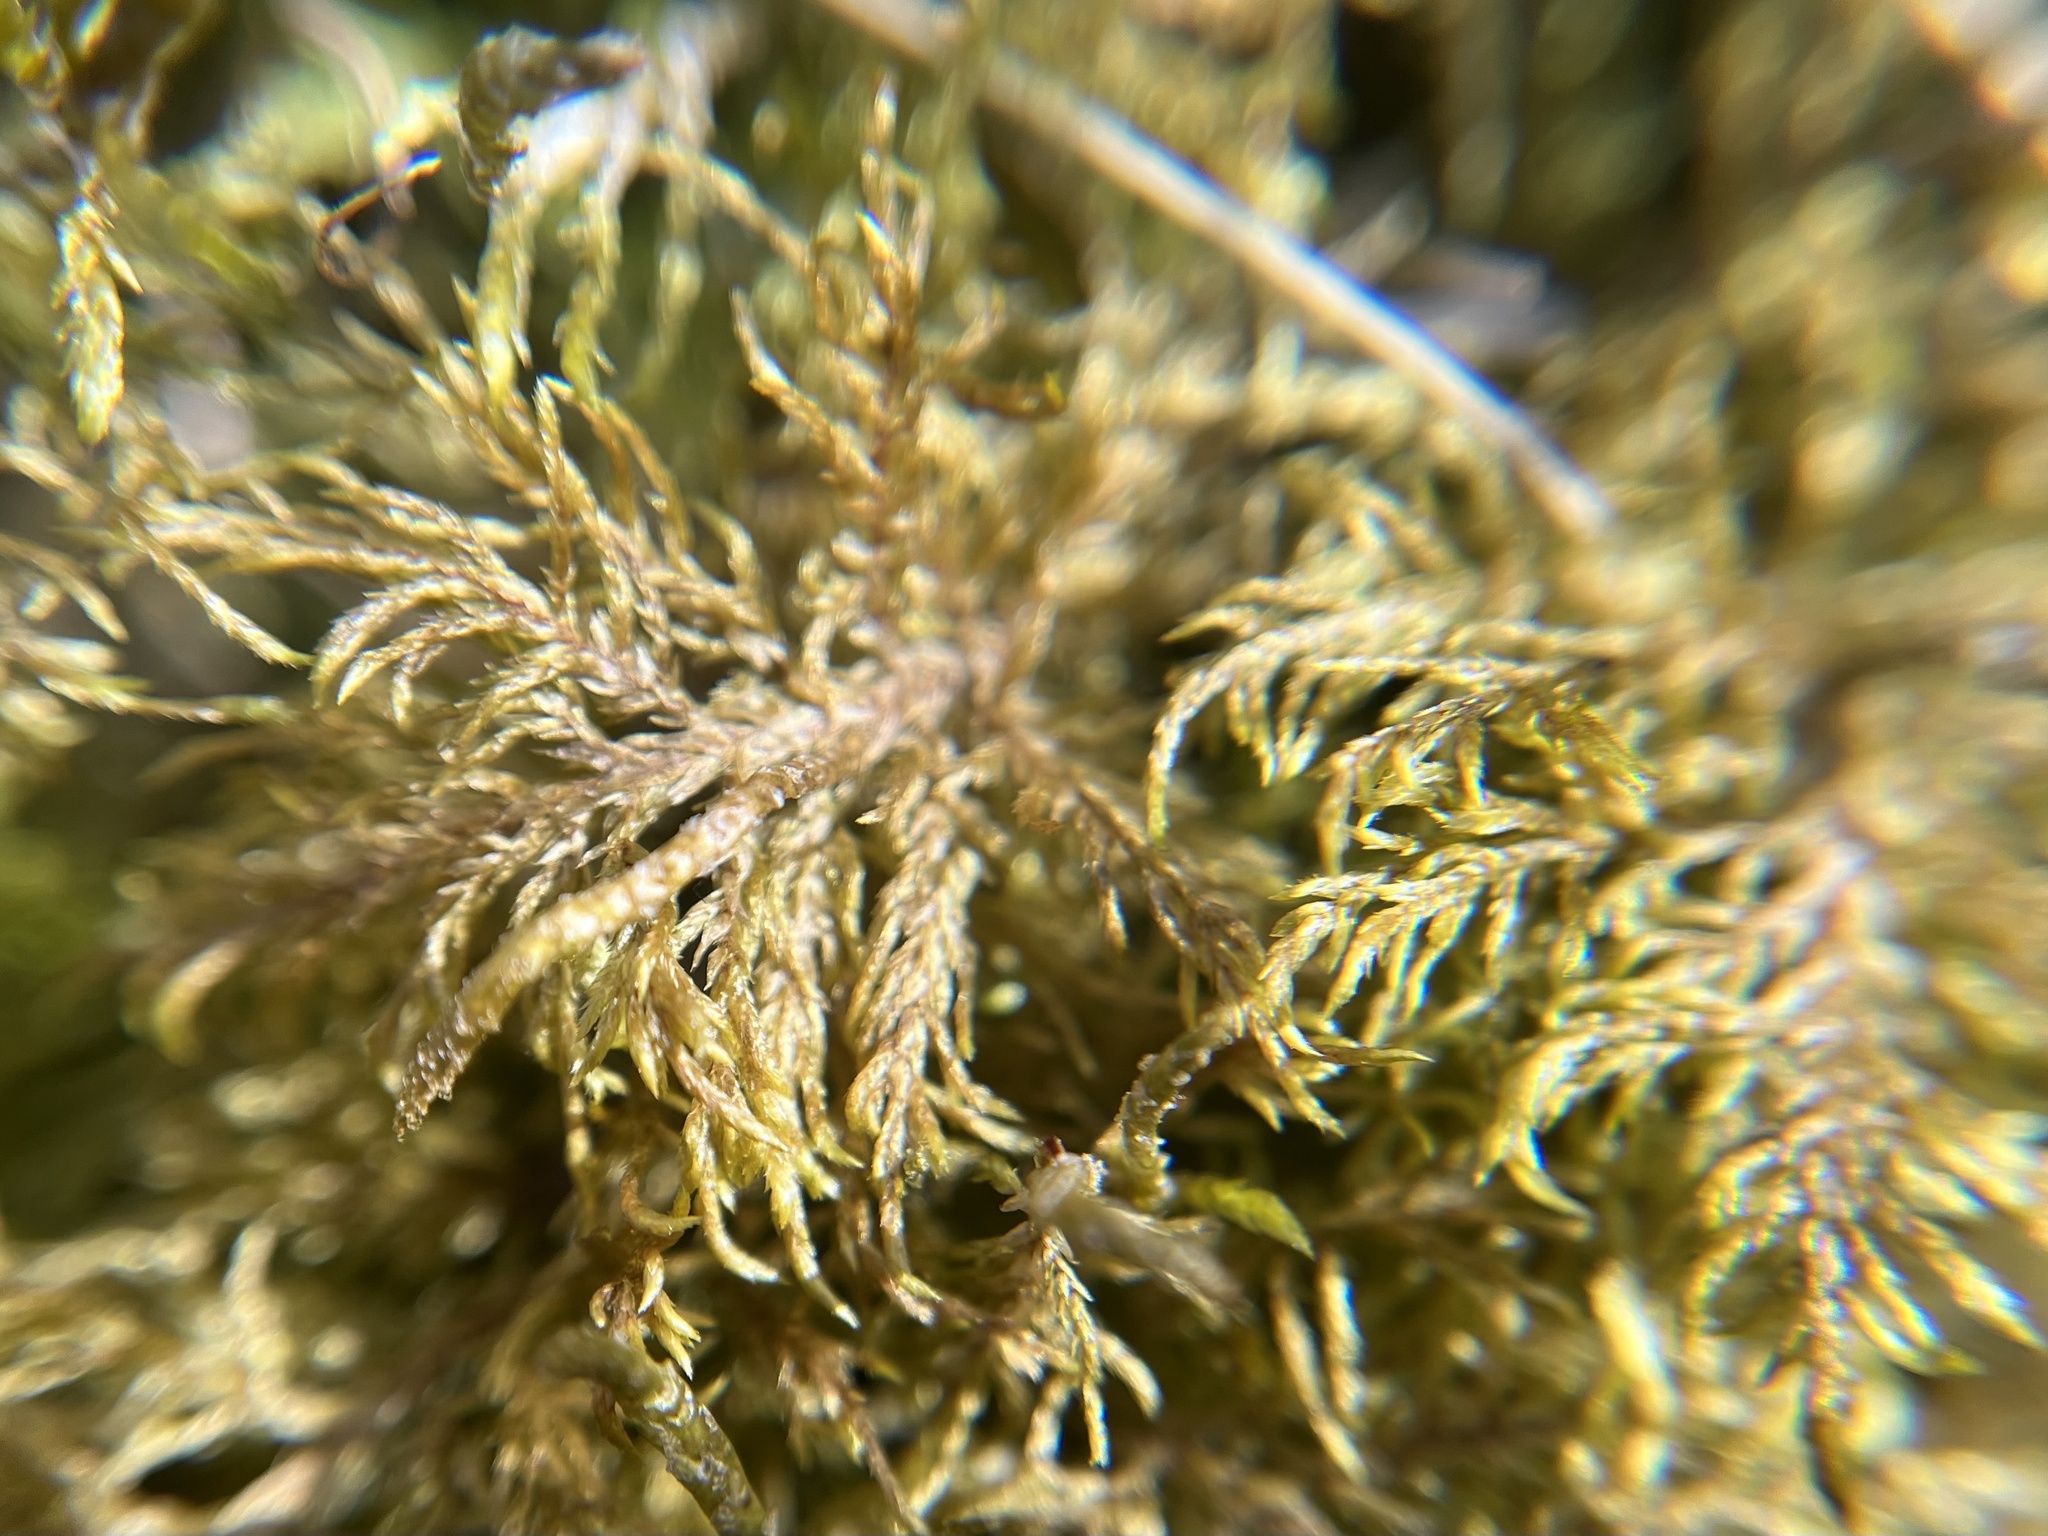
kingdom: Plantae
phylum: Bryophyta
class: Bryopsida
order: Hypnales
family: Hylocomiaceae
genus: Hylocomium
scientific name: Hylocomium splendens
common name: Stairstep moss
